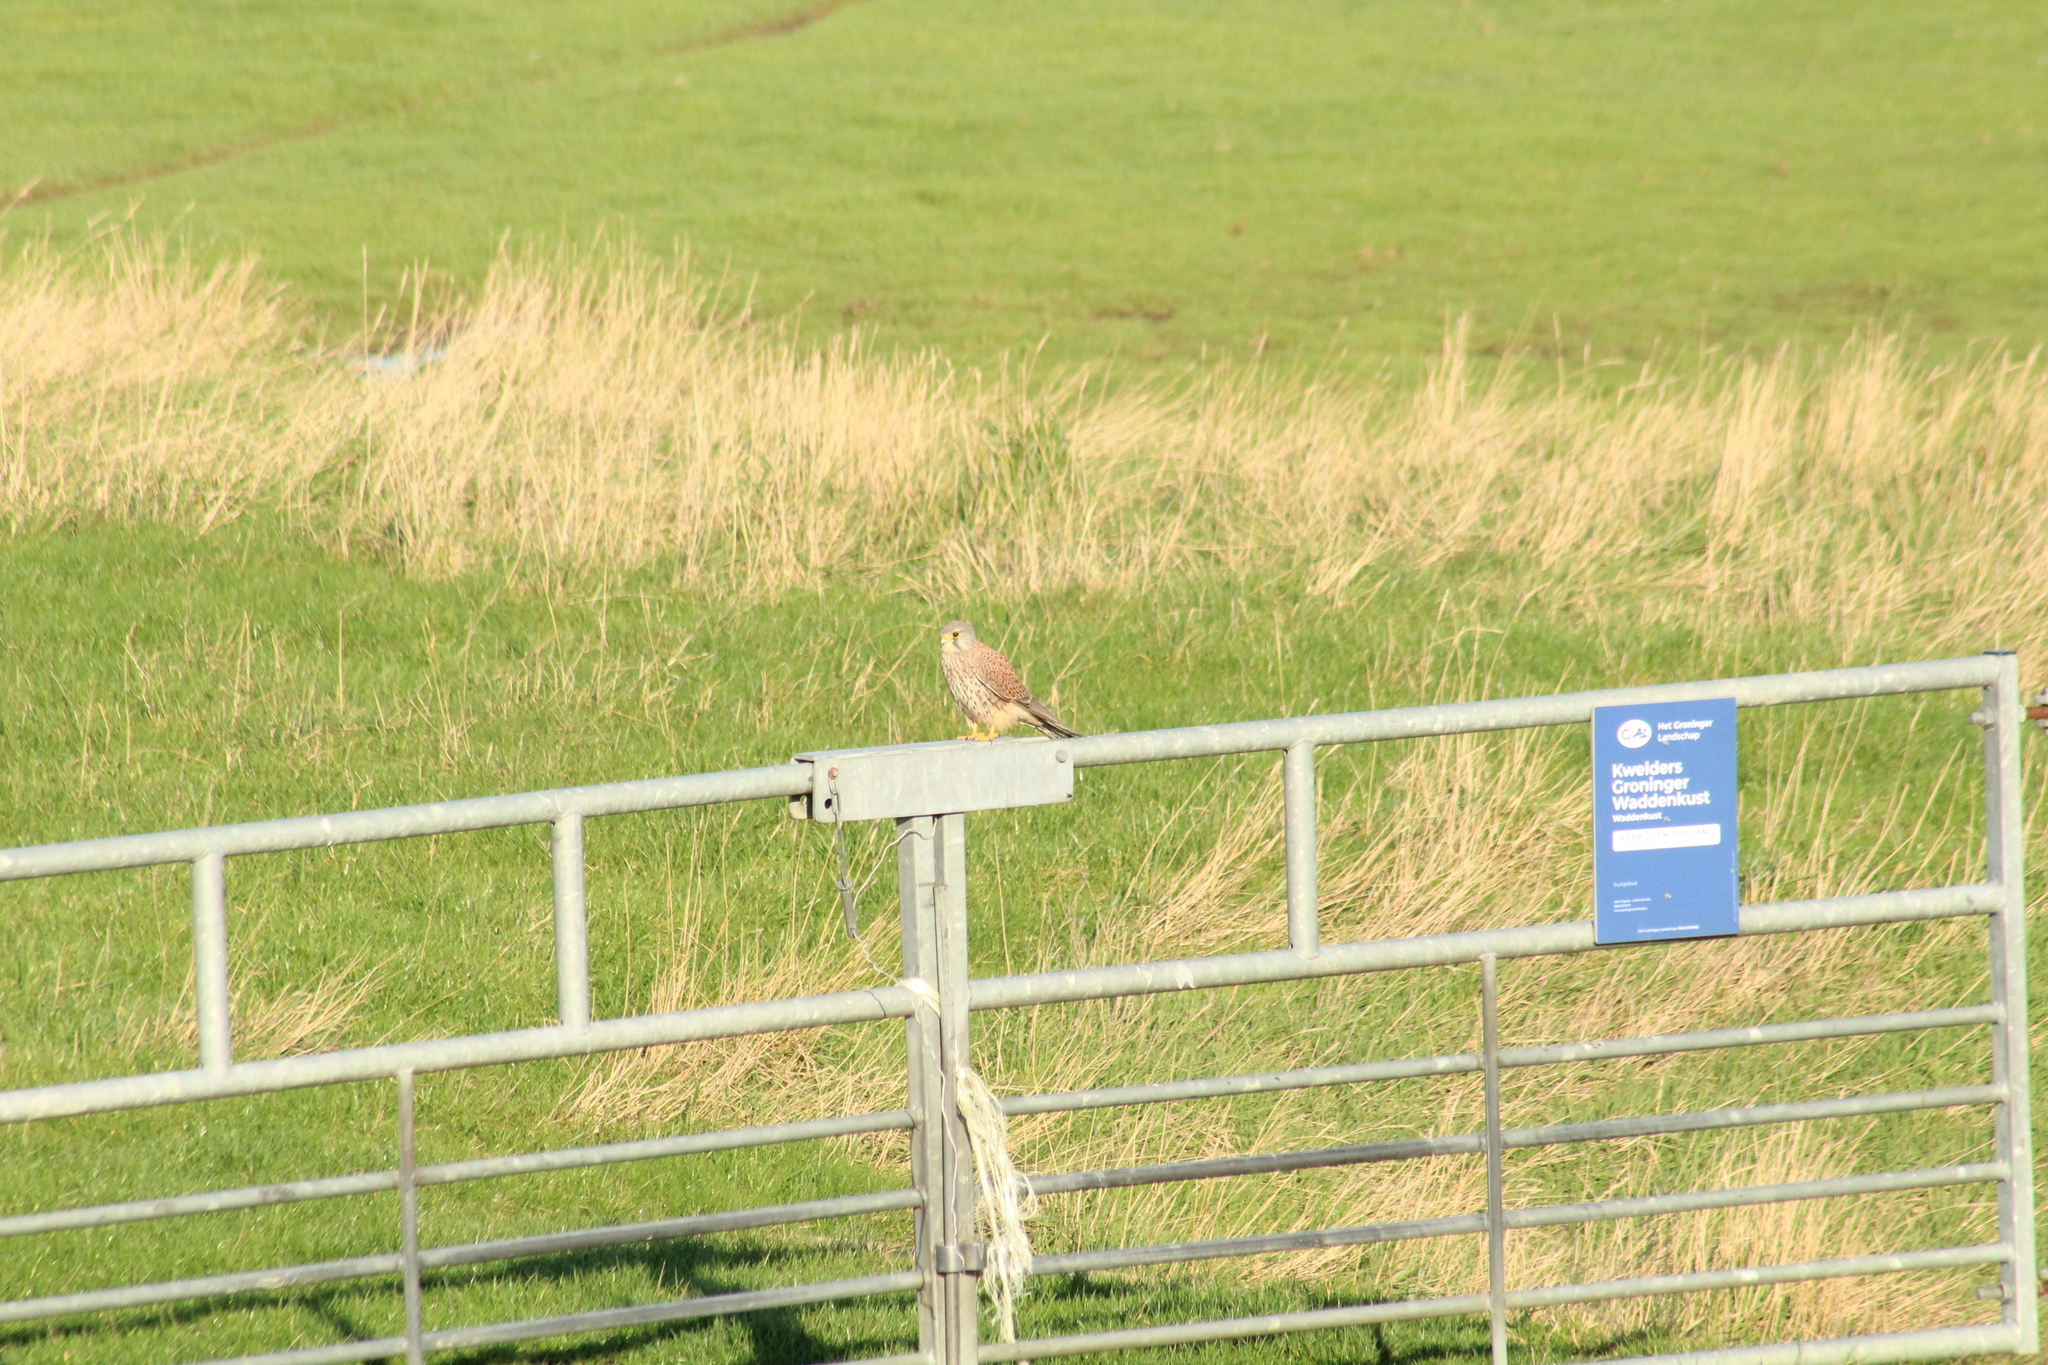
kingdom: Animalia
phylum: Chordata
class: Aves
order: Falconiformes
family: Falconidae
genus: Falco
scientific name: Falco tinnunculus
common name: Common kestrel
